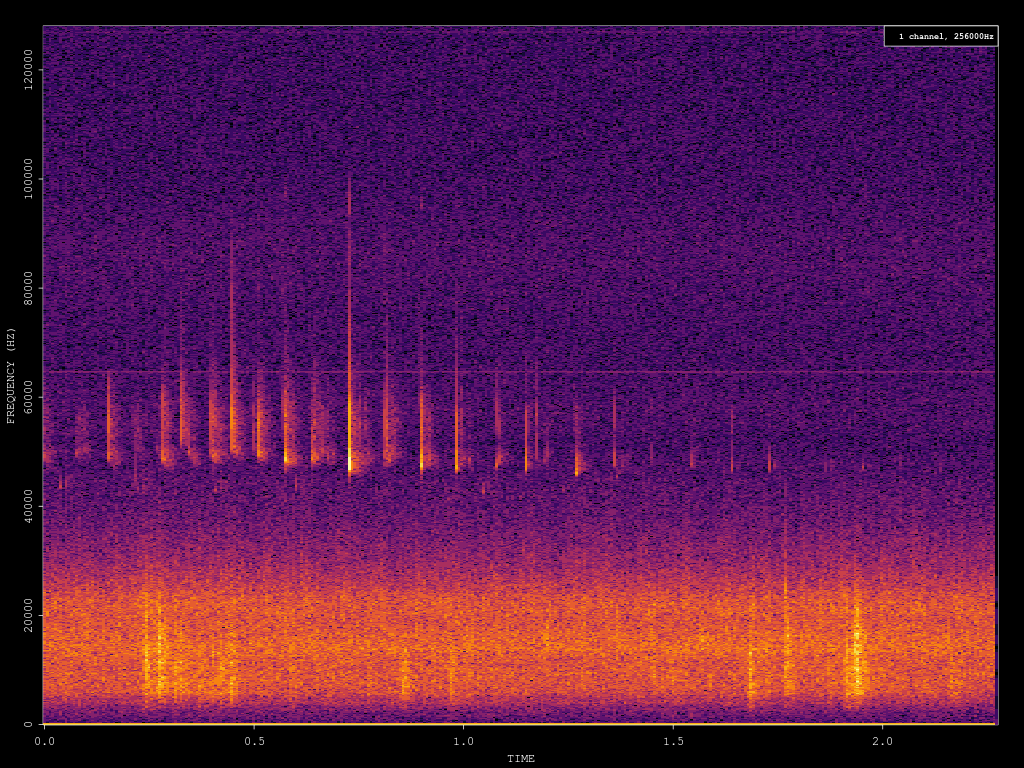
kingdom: Animalia
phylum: Chordata
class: Mammalia
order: Chiroptera
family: Vespertilionidae
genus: Pipistrellus
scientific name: Pipistrellus pipistrellus
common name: Common pipistrelle
